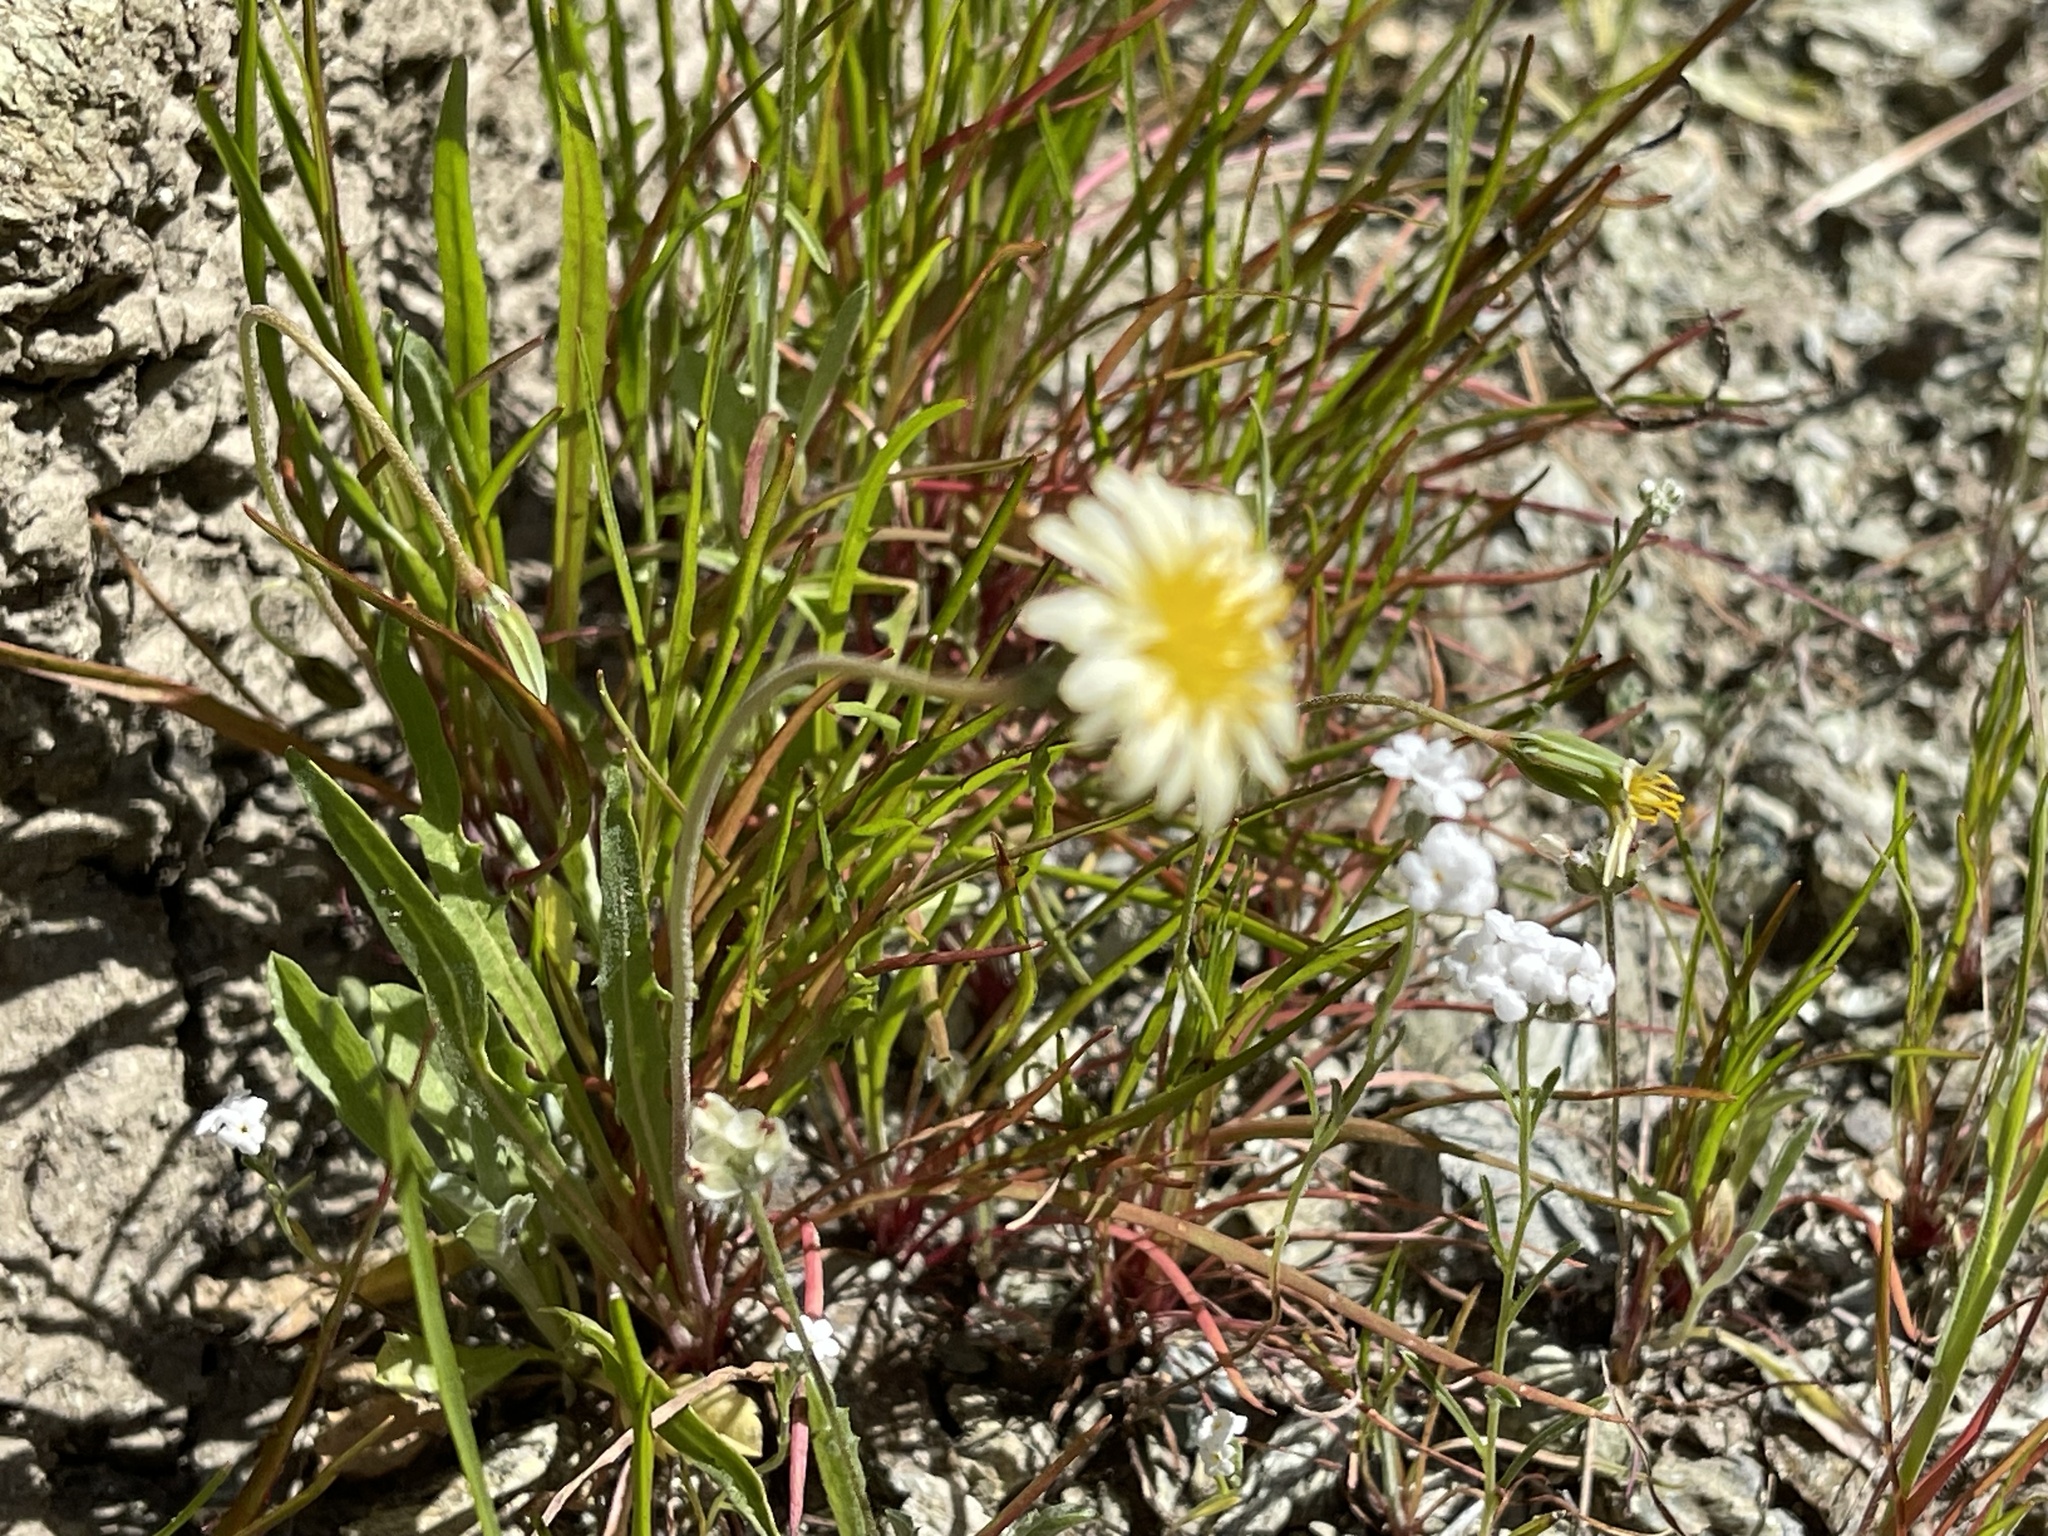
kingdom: Plantae
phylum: Tracheophyta
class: Magnoliopsida
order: Asterales
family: Asteraceae
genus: Microseris
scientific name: Microseris douglasii
